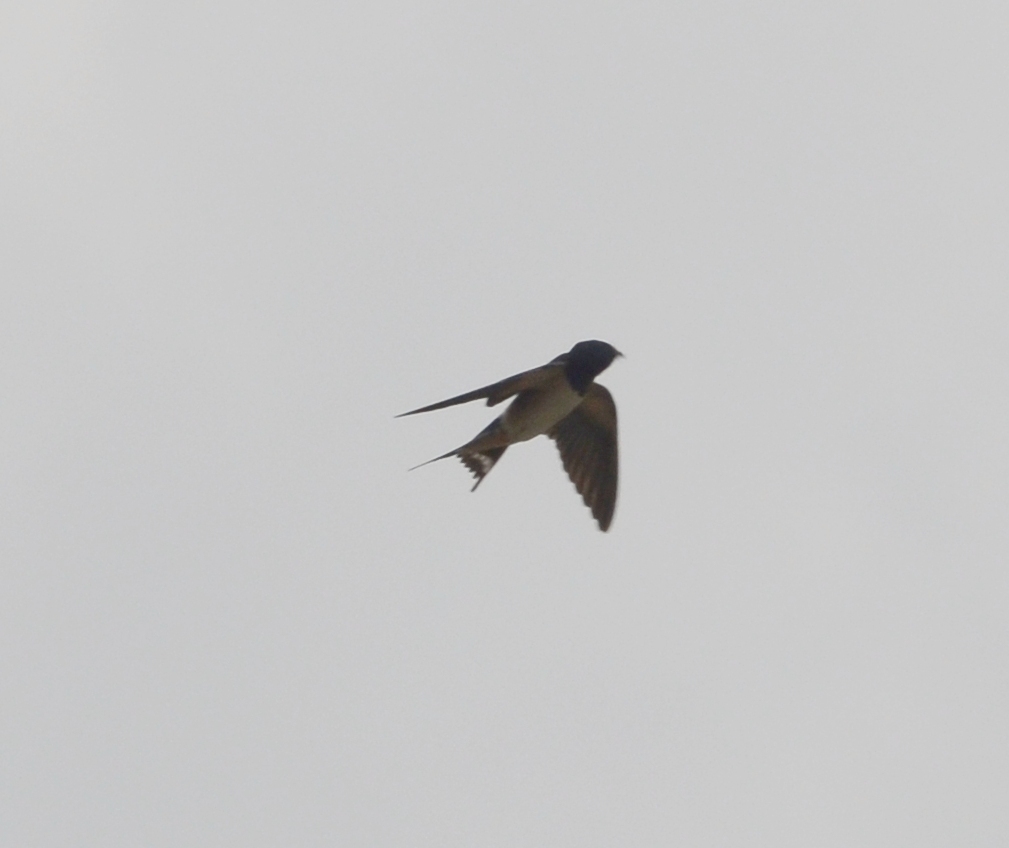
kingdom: Animalia
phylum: Chordata
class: Aves
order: Passeriformes
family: Hirundinidae
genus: Hirundo
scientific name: Hirundo rustica
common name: Barn swallow
